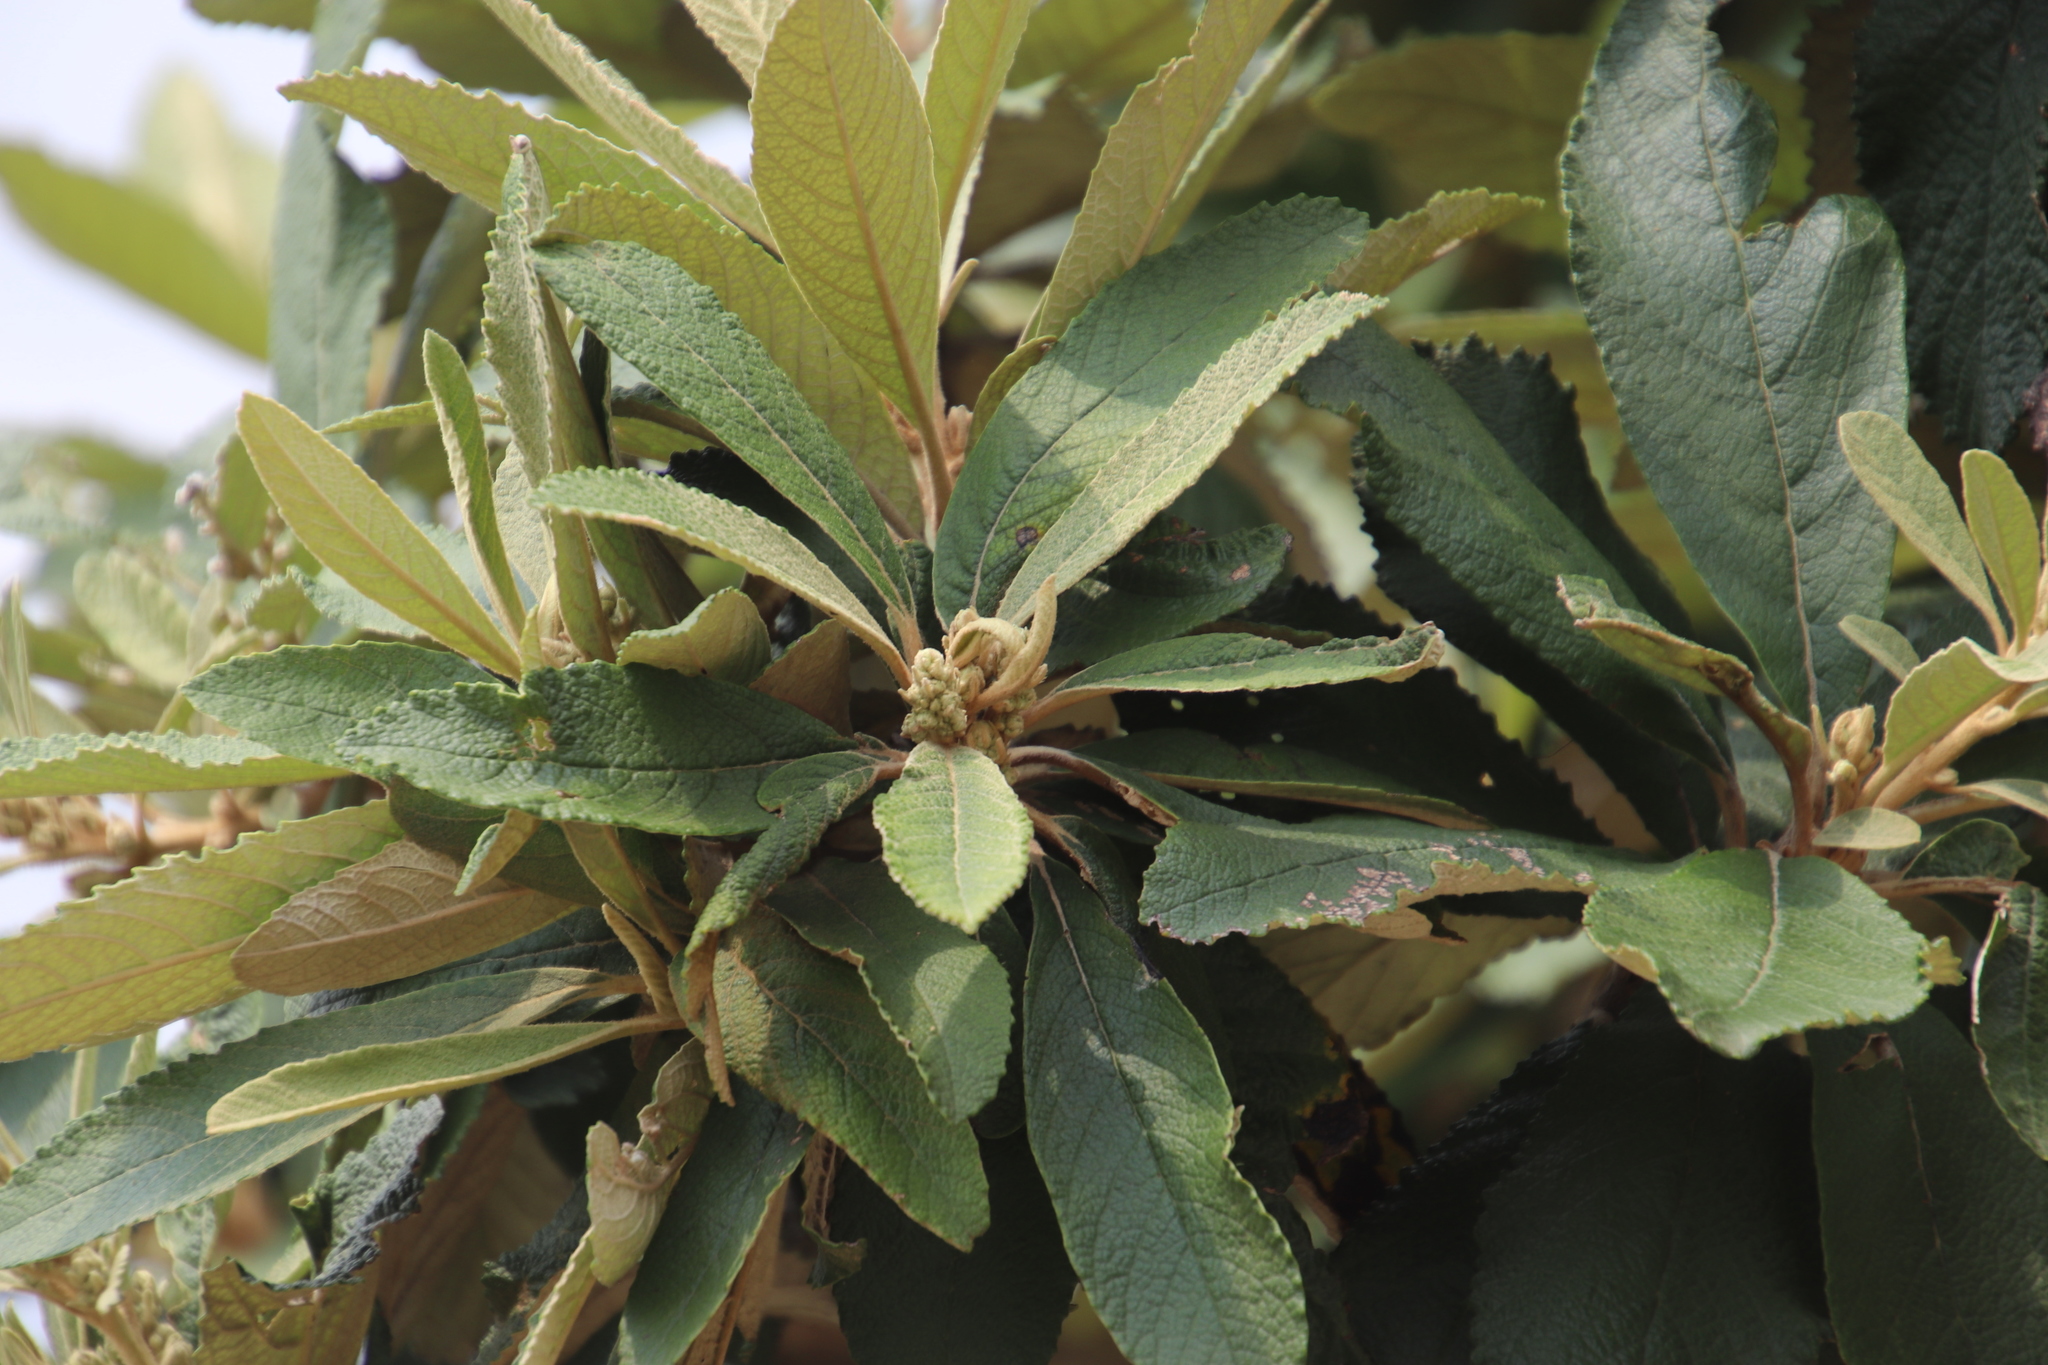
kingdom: Plantae
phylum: Tracheophyta
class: Magnoliopsida
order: Asterales
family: Asteraceae
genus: Tarchonanthus
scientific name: Tarchonanthus trilobus
